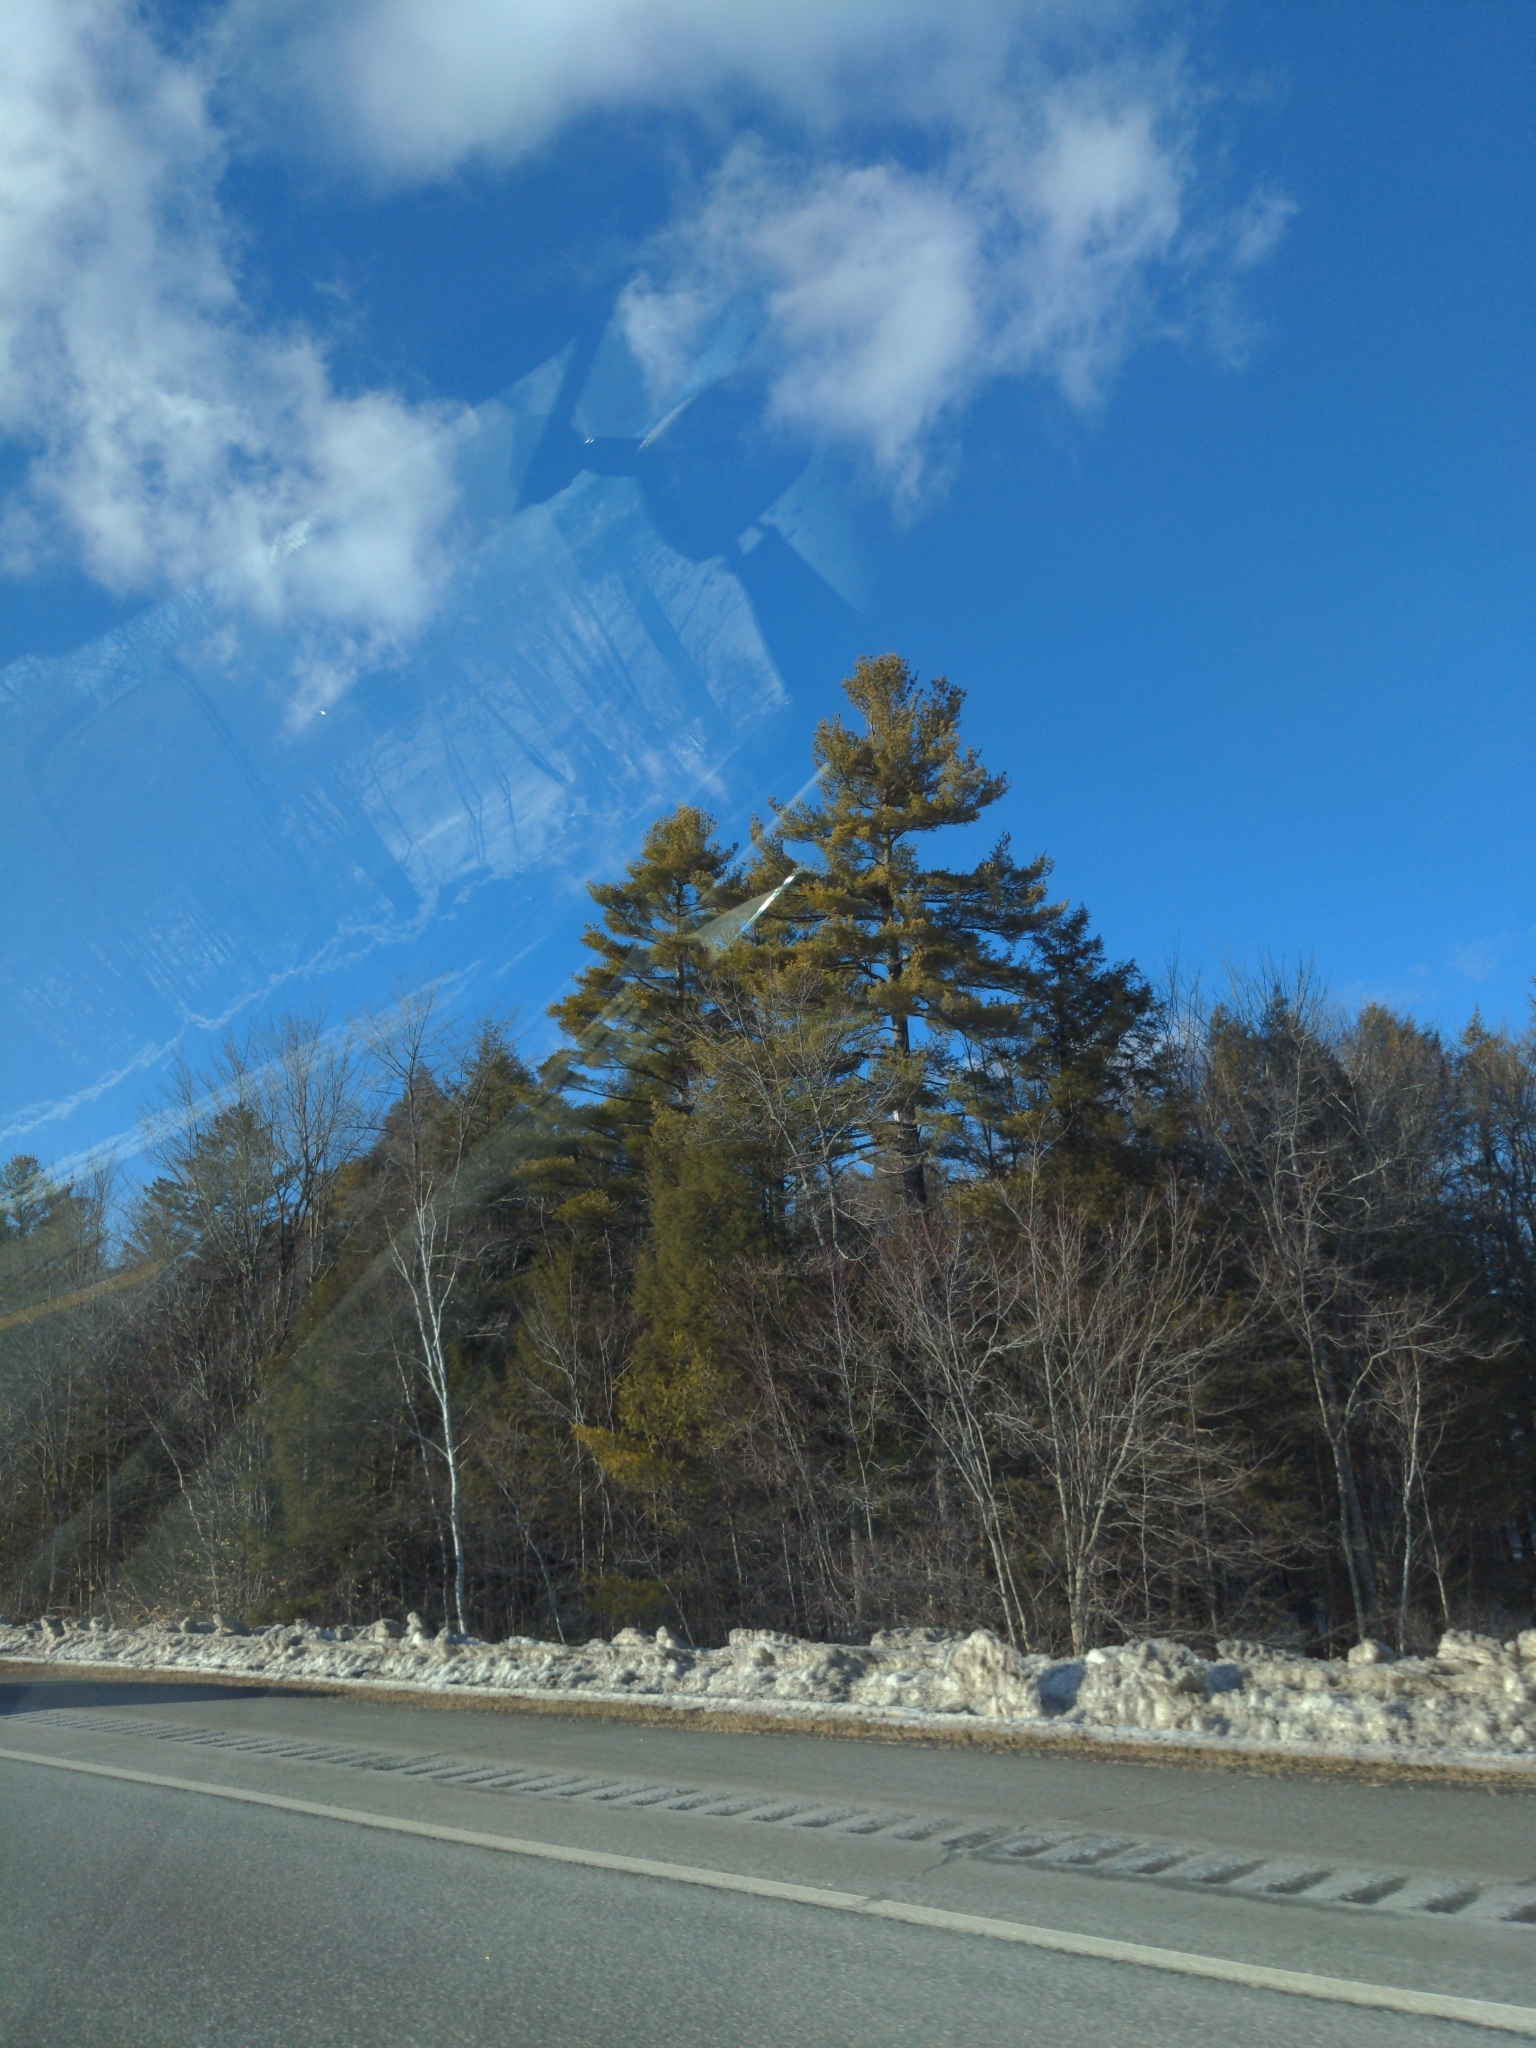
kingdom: Plantae
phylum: Tracheophyta
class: Pinopsida
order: Pinales
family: Pinaceae
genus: Pinus
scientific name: Pinus strobus
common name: Weymouth pine
